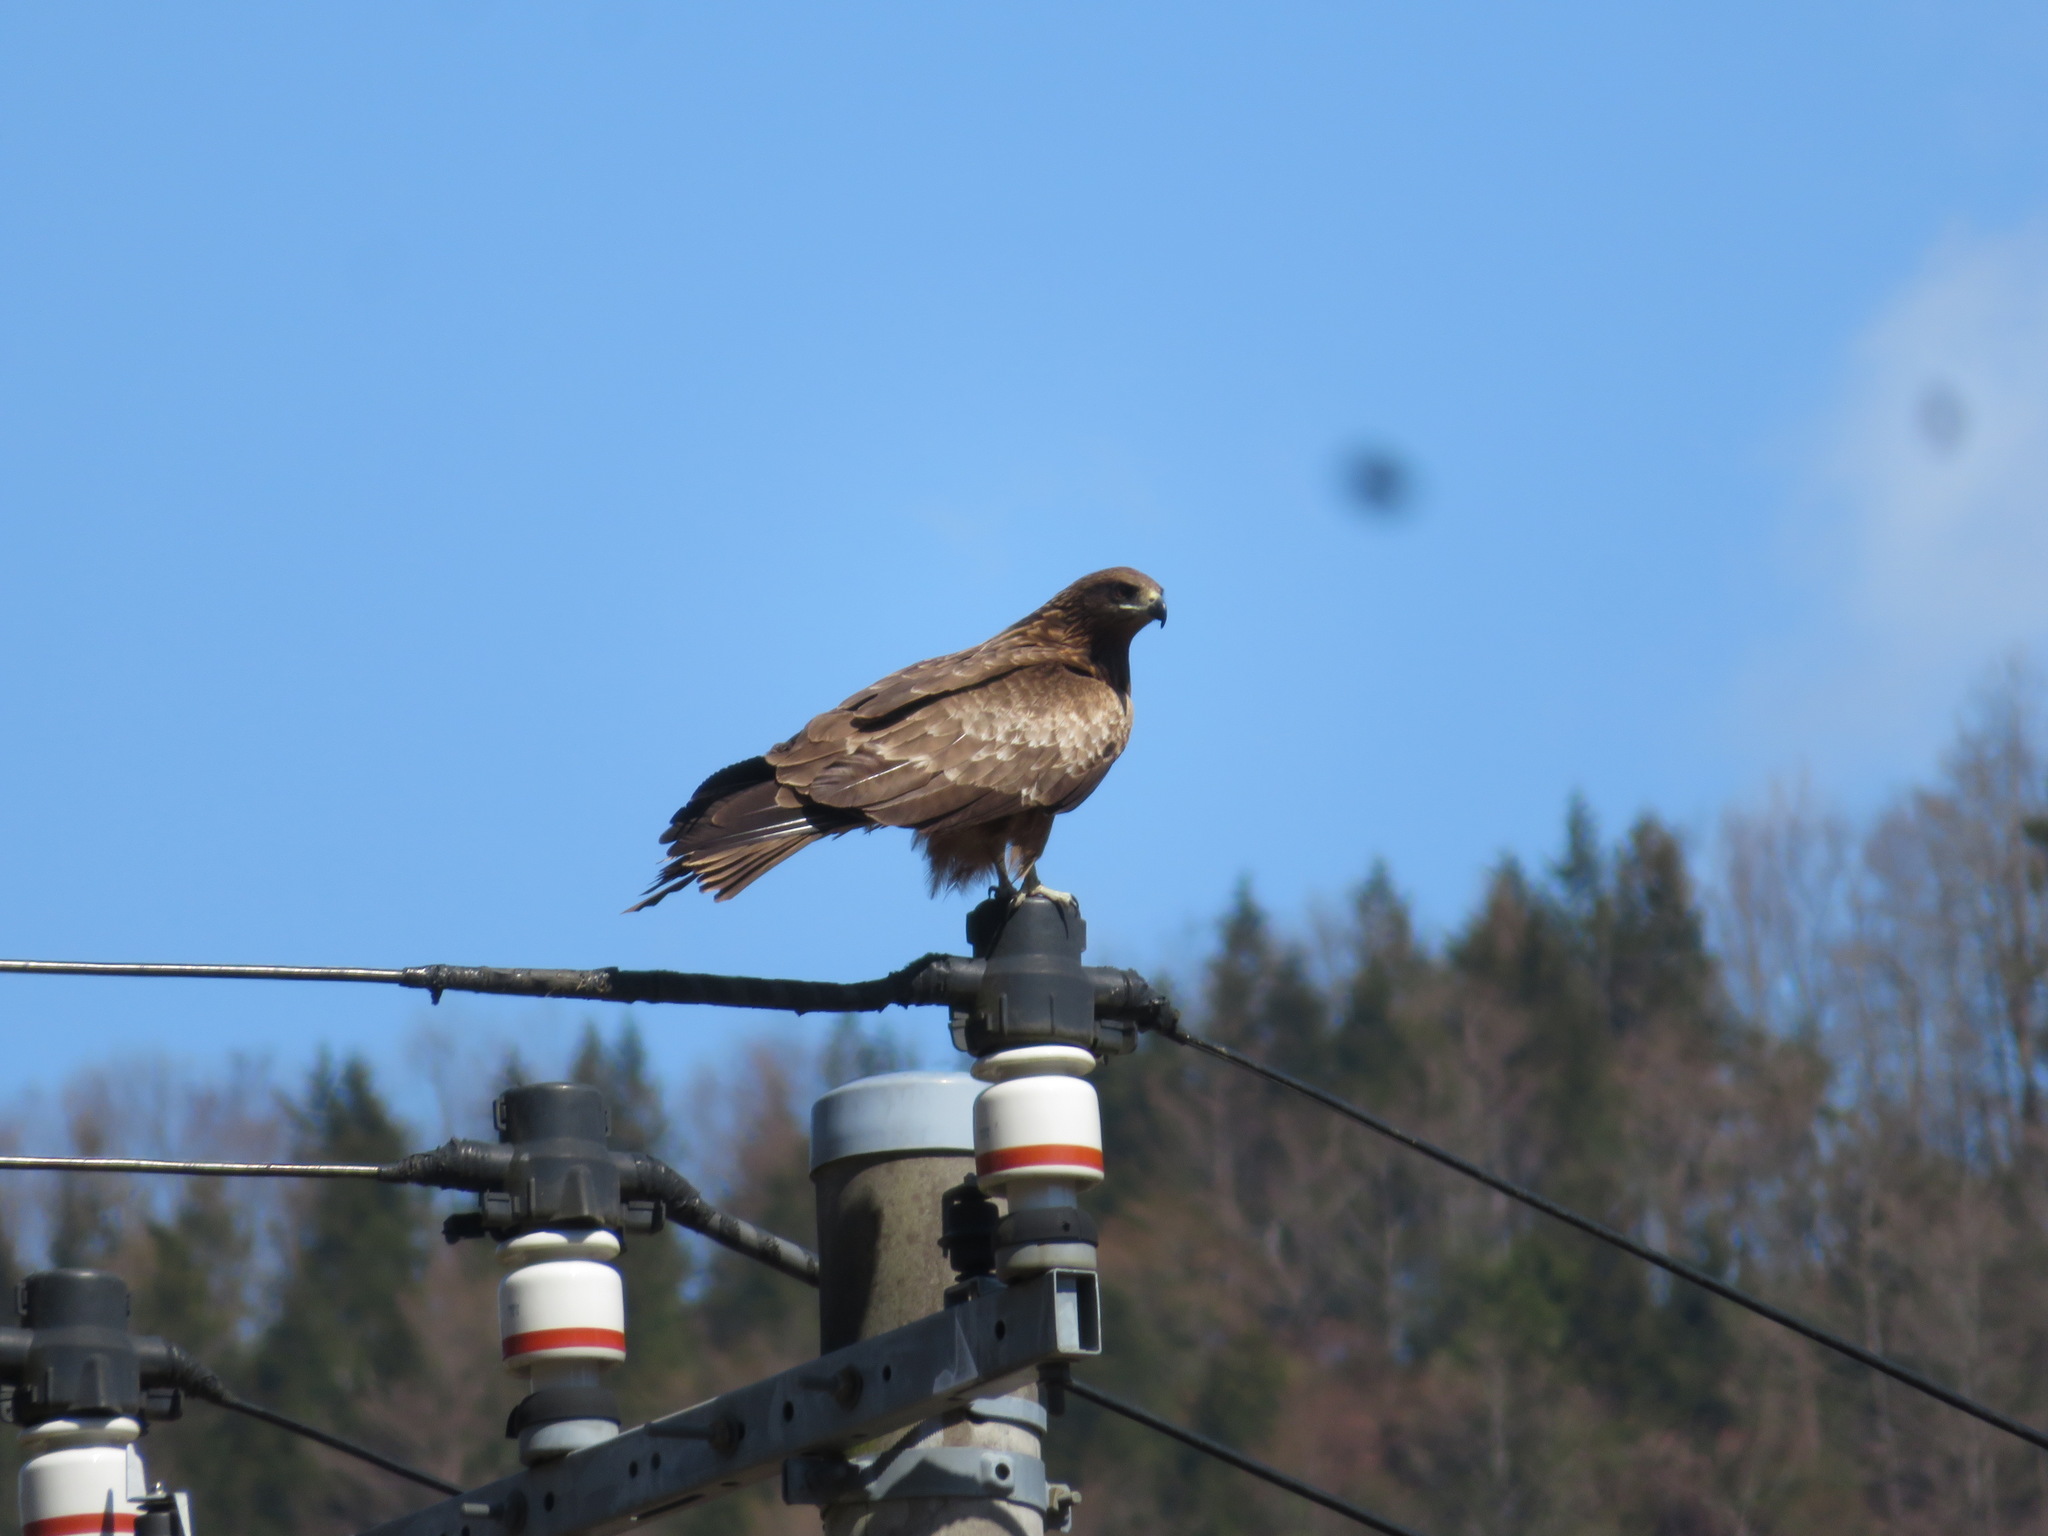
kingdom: Animalia
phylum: Chordata
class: Aves
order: Accipitriformes
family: Accipitridae
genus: Milvus
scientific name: Milvus migrans
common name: Black kite
